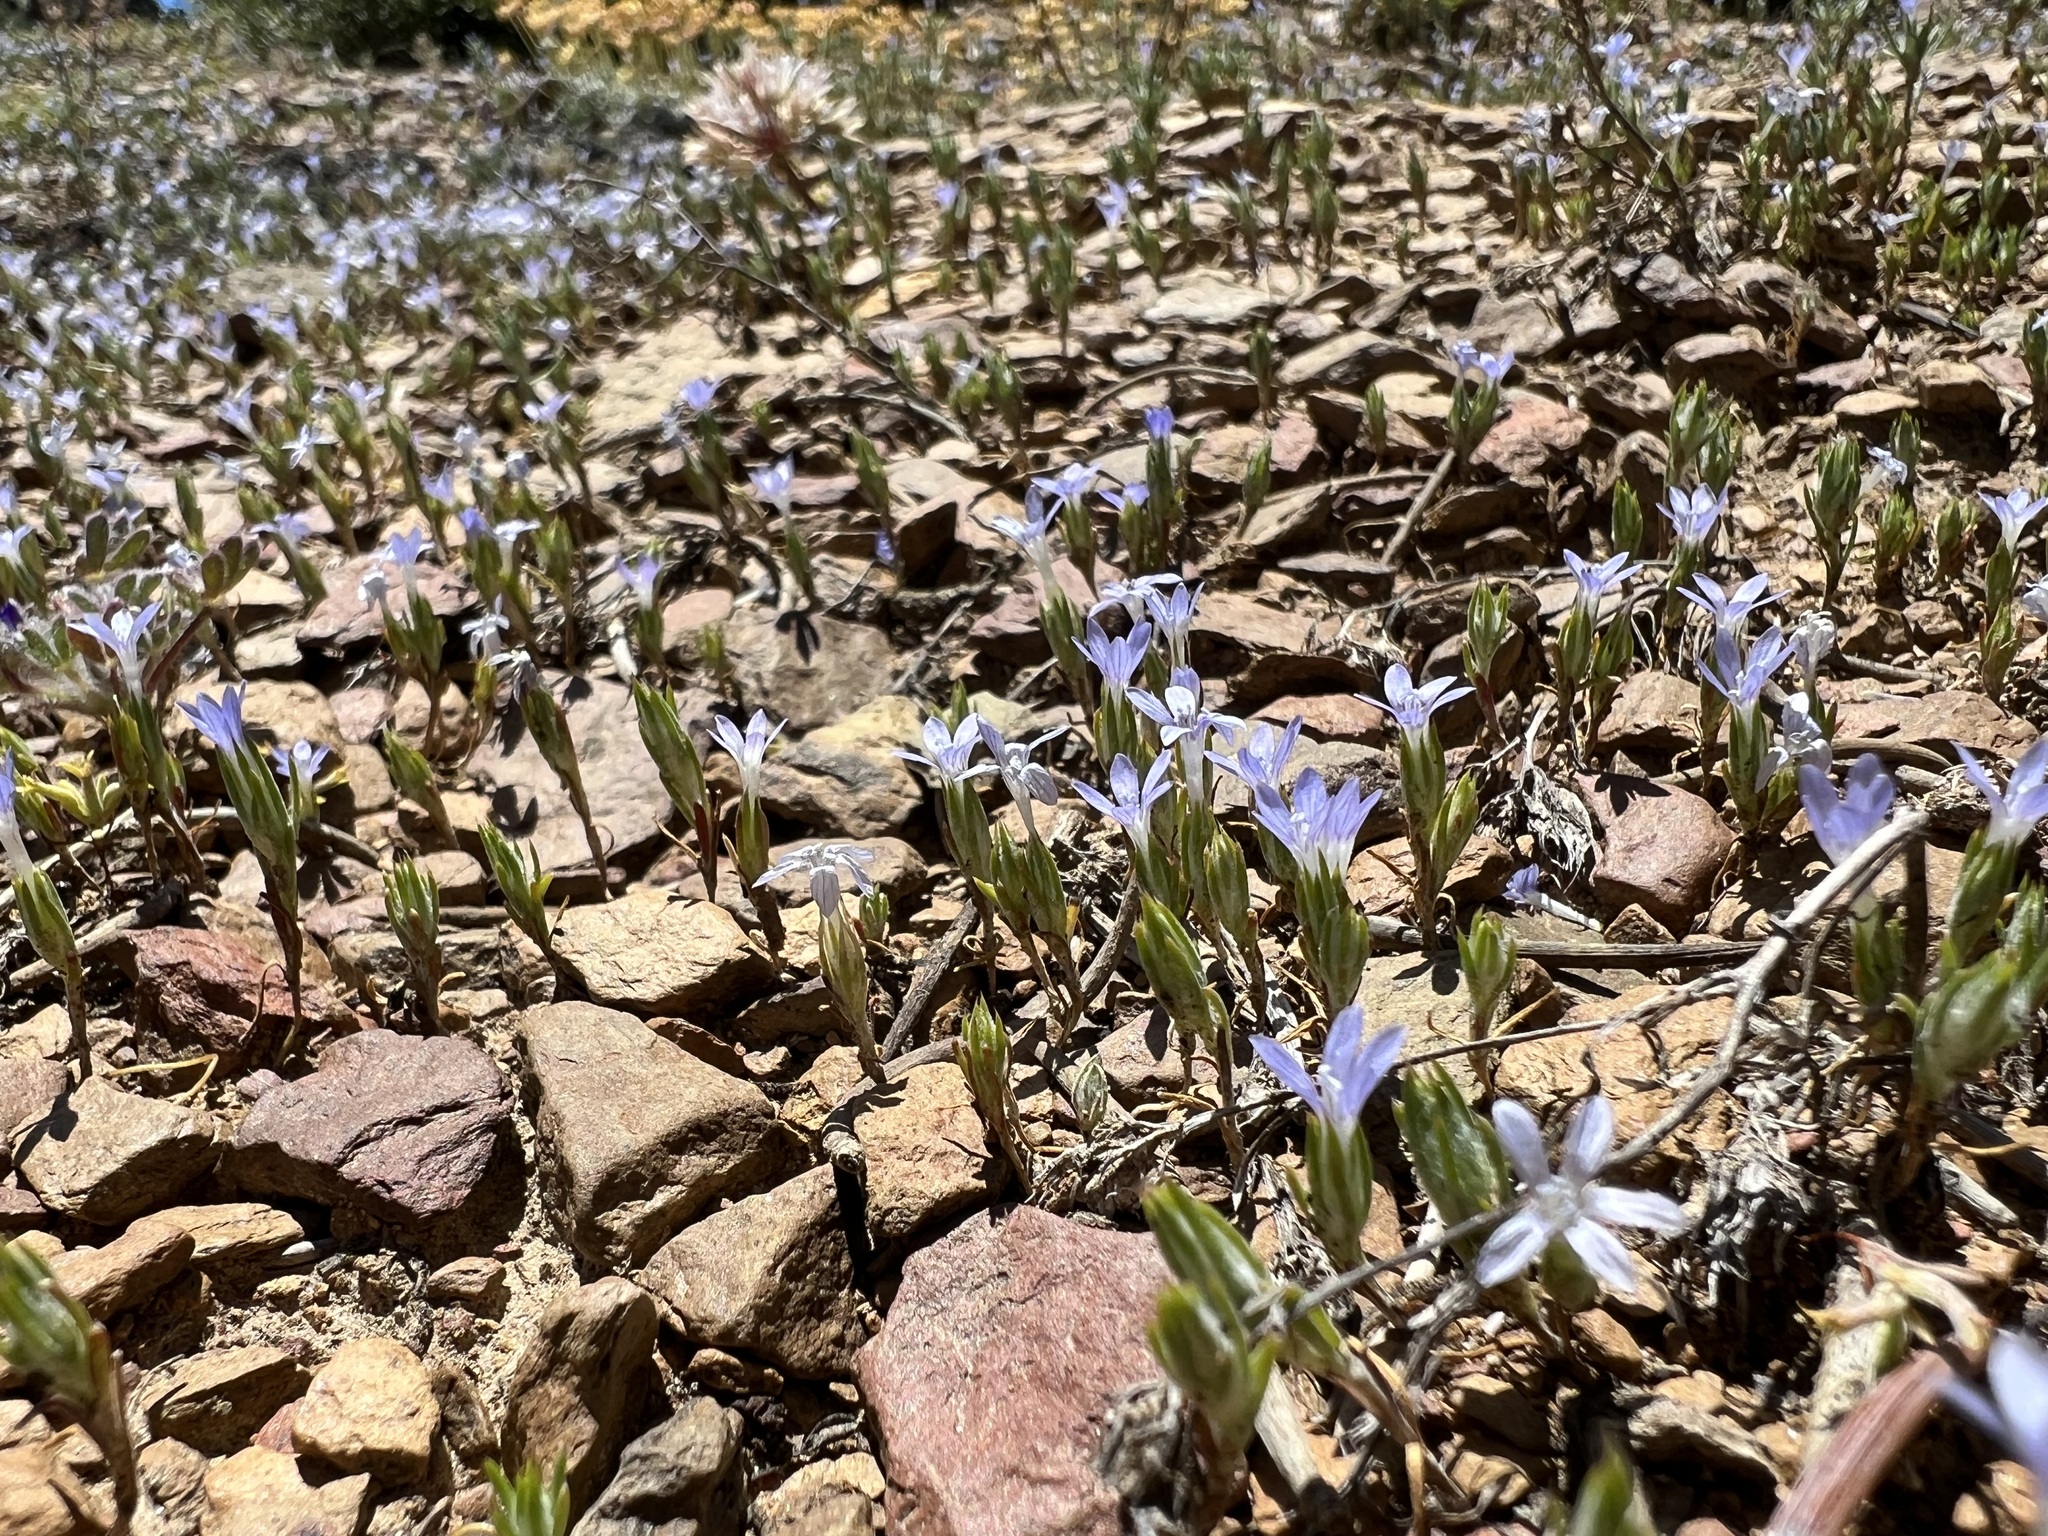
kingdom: Plantae
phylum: Tracheophyta
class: Magnoliopsida
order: Ericales
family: Polemoniaceae
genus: Eriastrum
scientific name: Eriastrum wilcoxii
